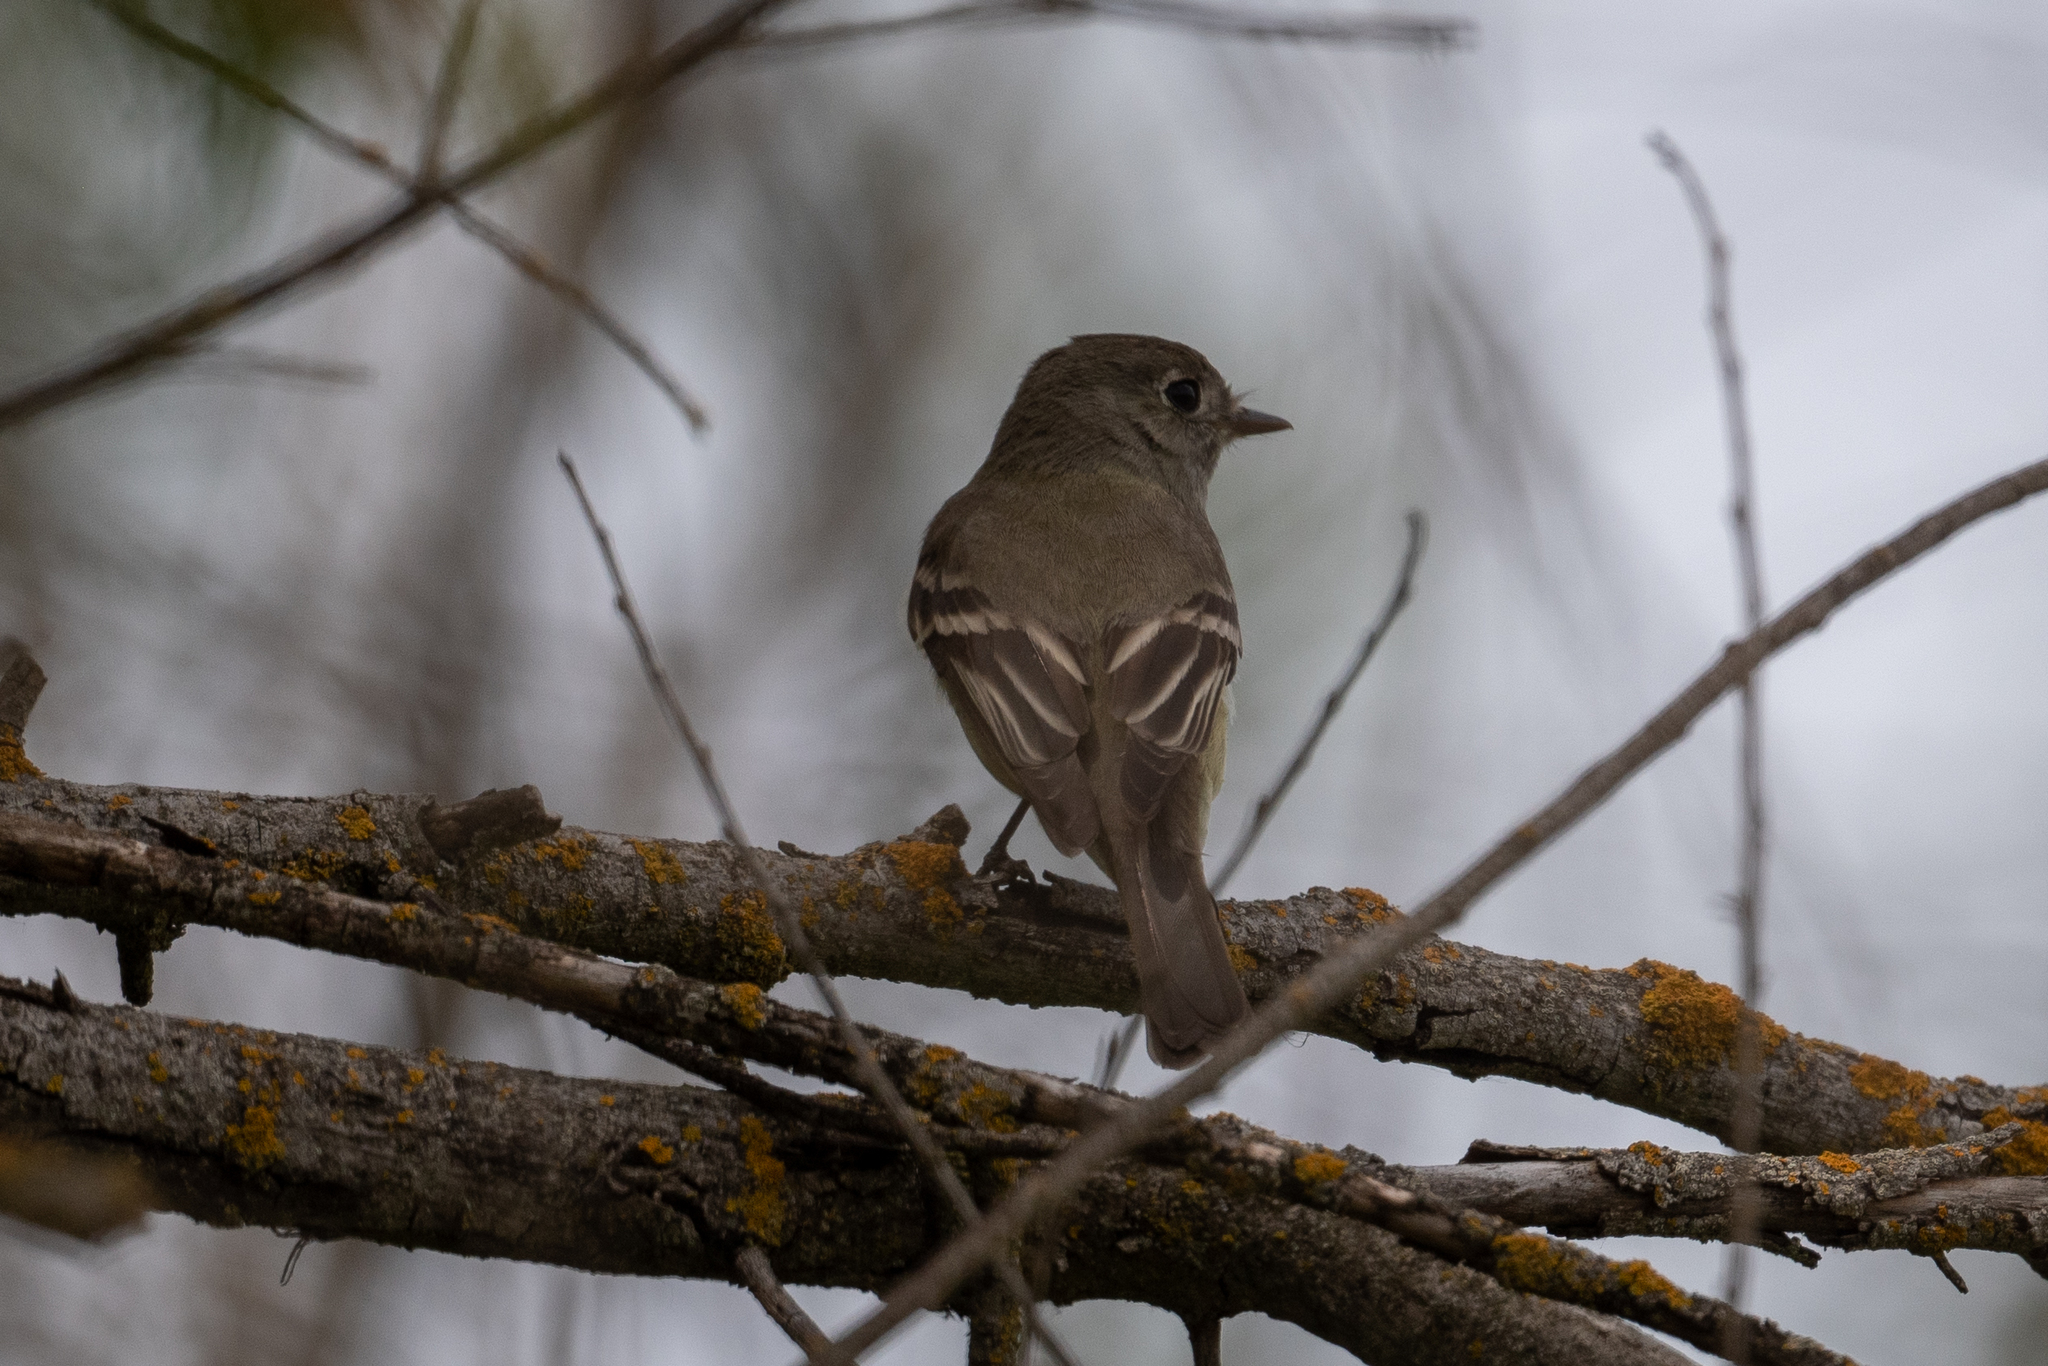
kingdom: Animalia
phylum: Chordata
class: Aves
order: Passeriformes
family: Tyrannidae
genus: Empidonax
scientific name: Empidonax hammondii
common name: Hammond's flycatcher
